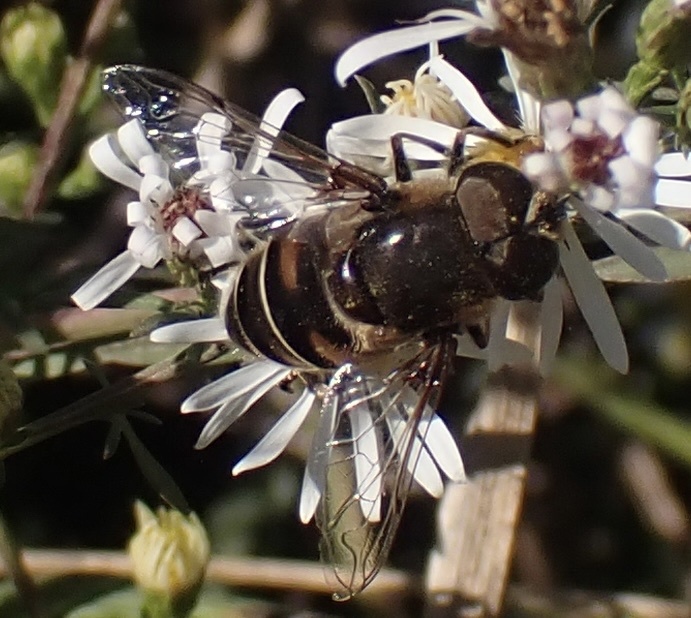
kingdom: Animalia
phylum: Arthropoda
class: Insecta
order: Diptera
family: Syrphidae
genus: Eristalis
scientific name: Eristalis dimidiata
